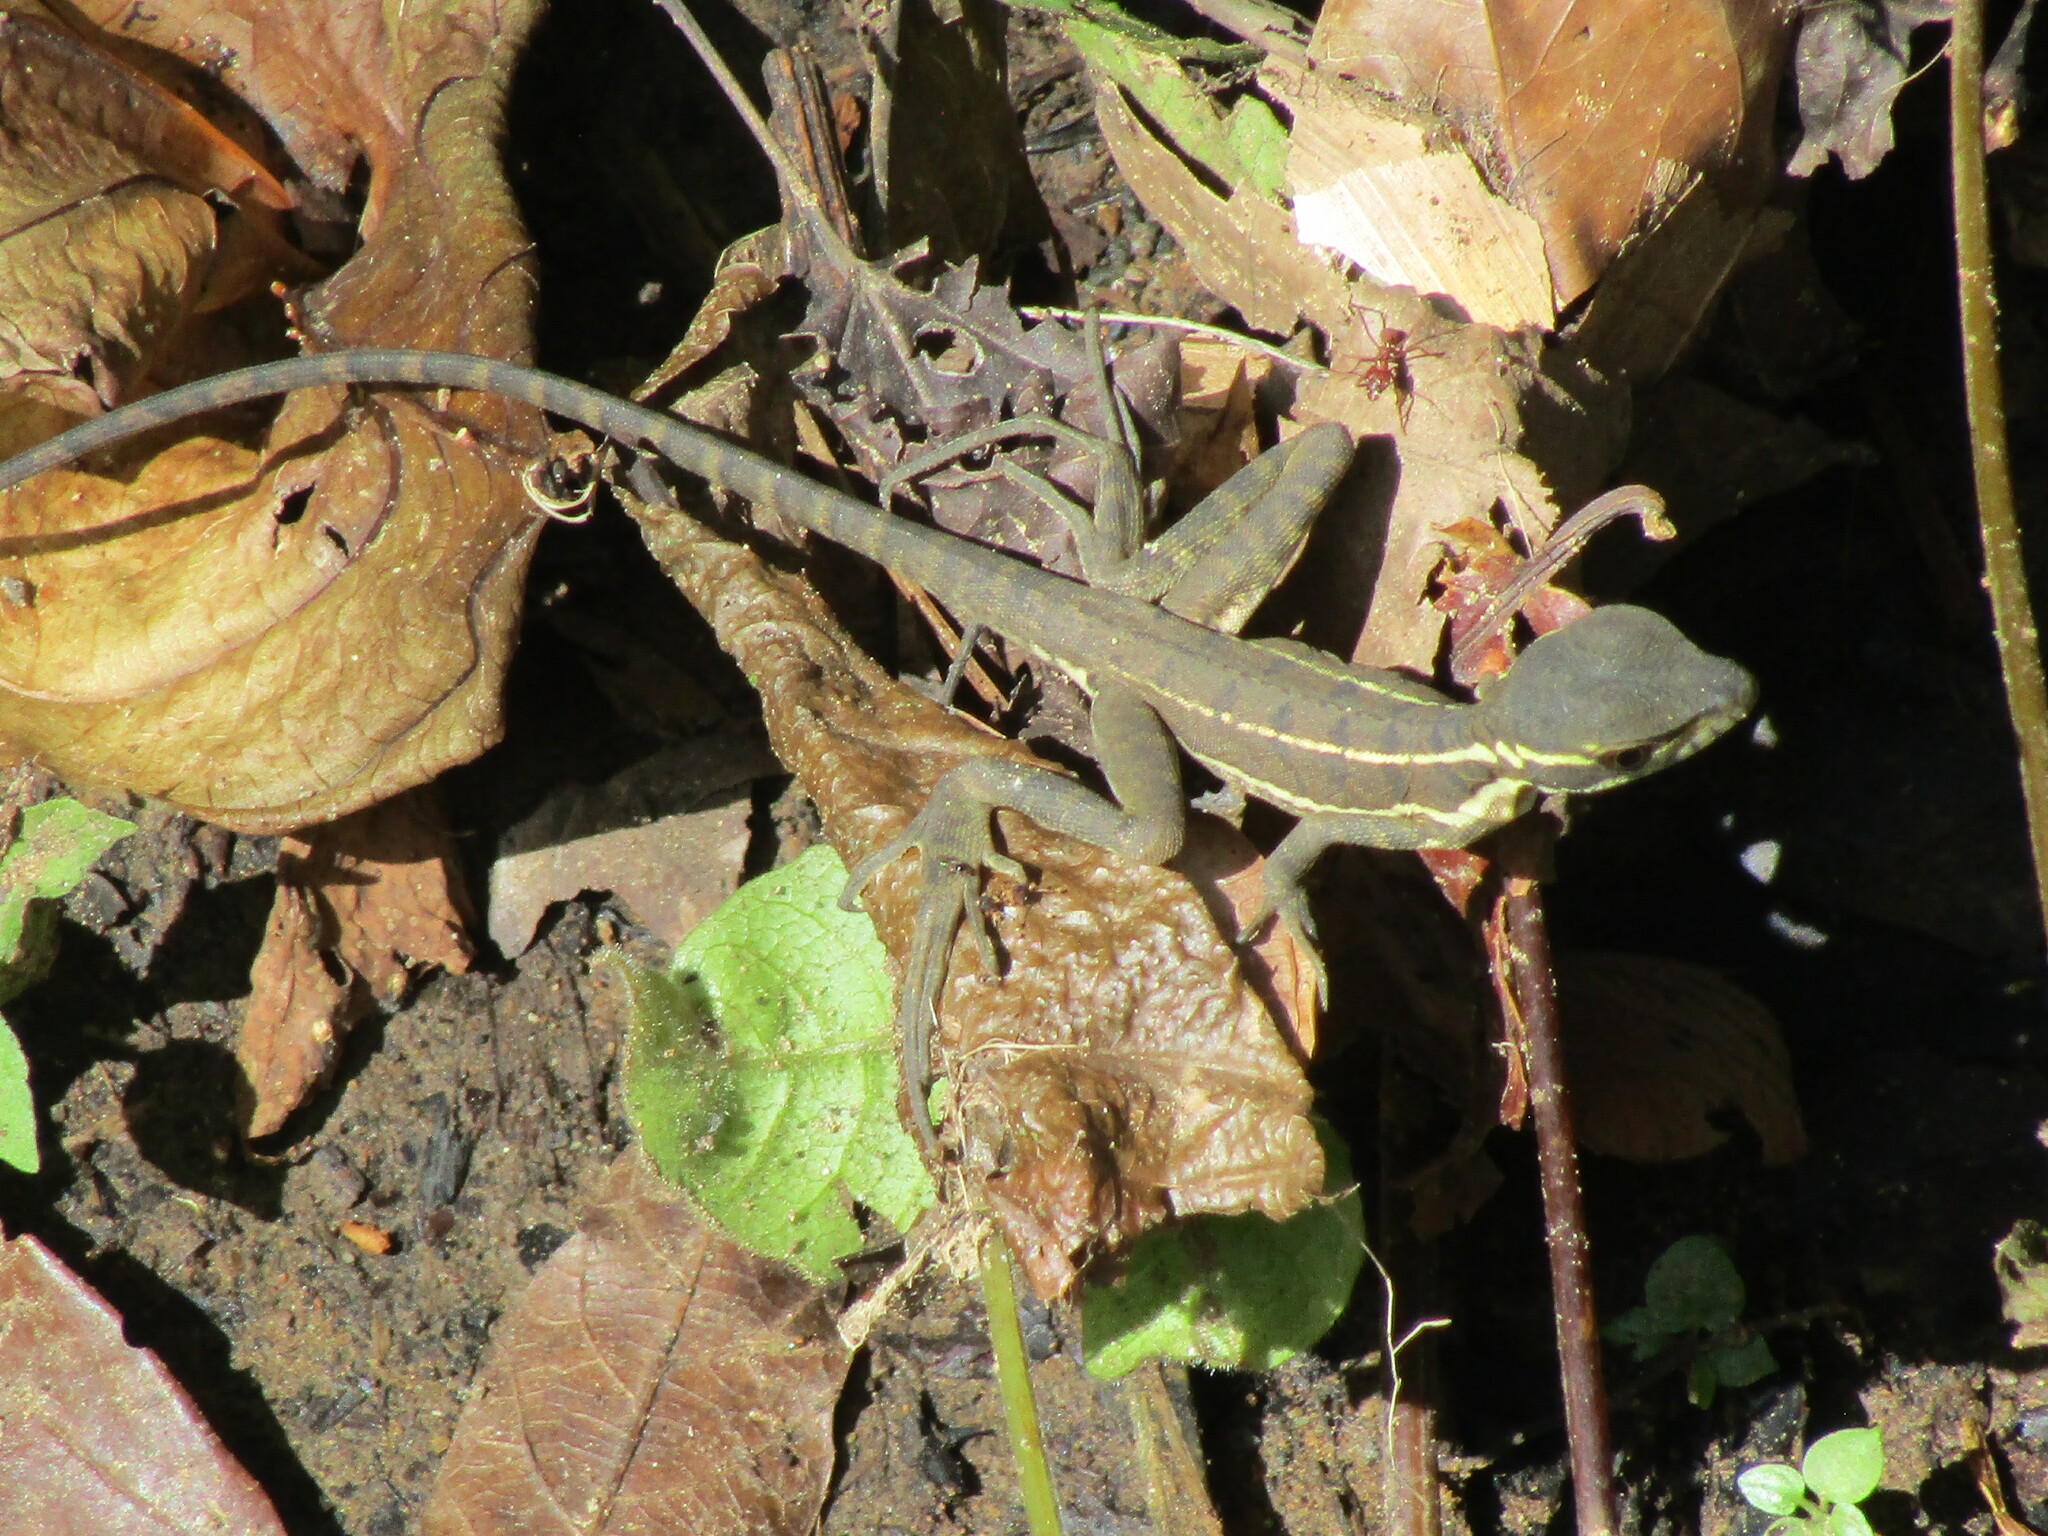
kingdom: Animalia
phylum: Chordata
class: Squamata
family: Corytophanidae
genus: Basiliscus
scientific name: Basiliscus basiliscus
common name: Common basilisk
